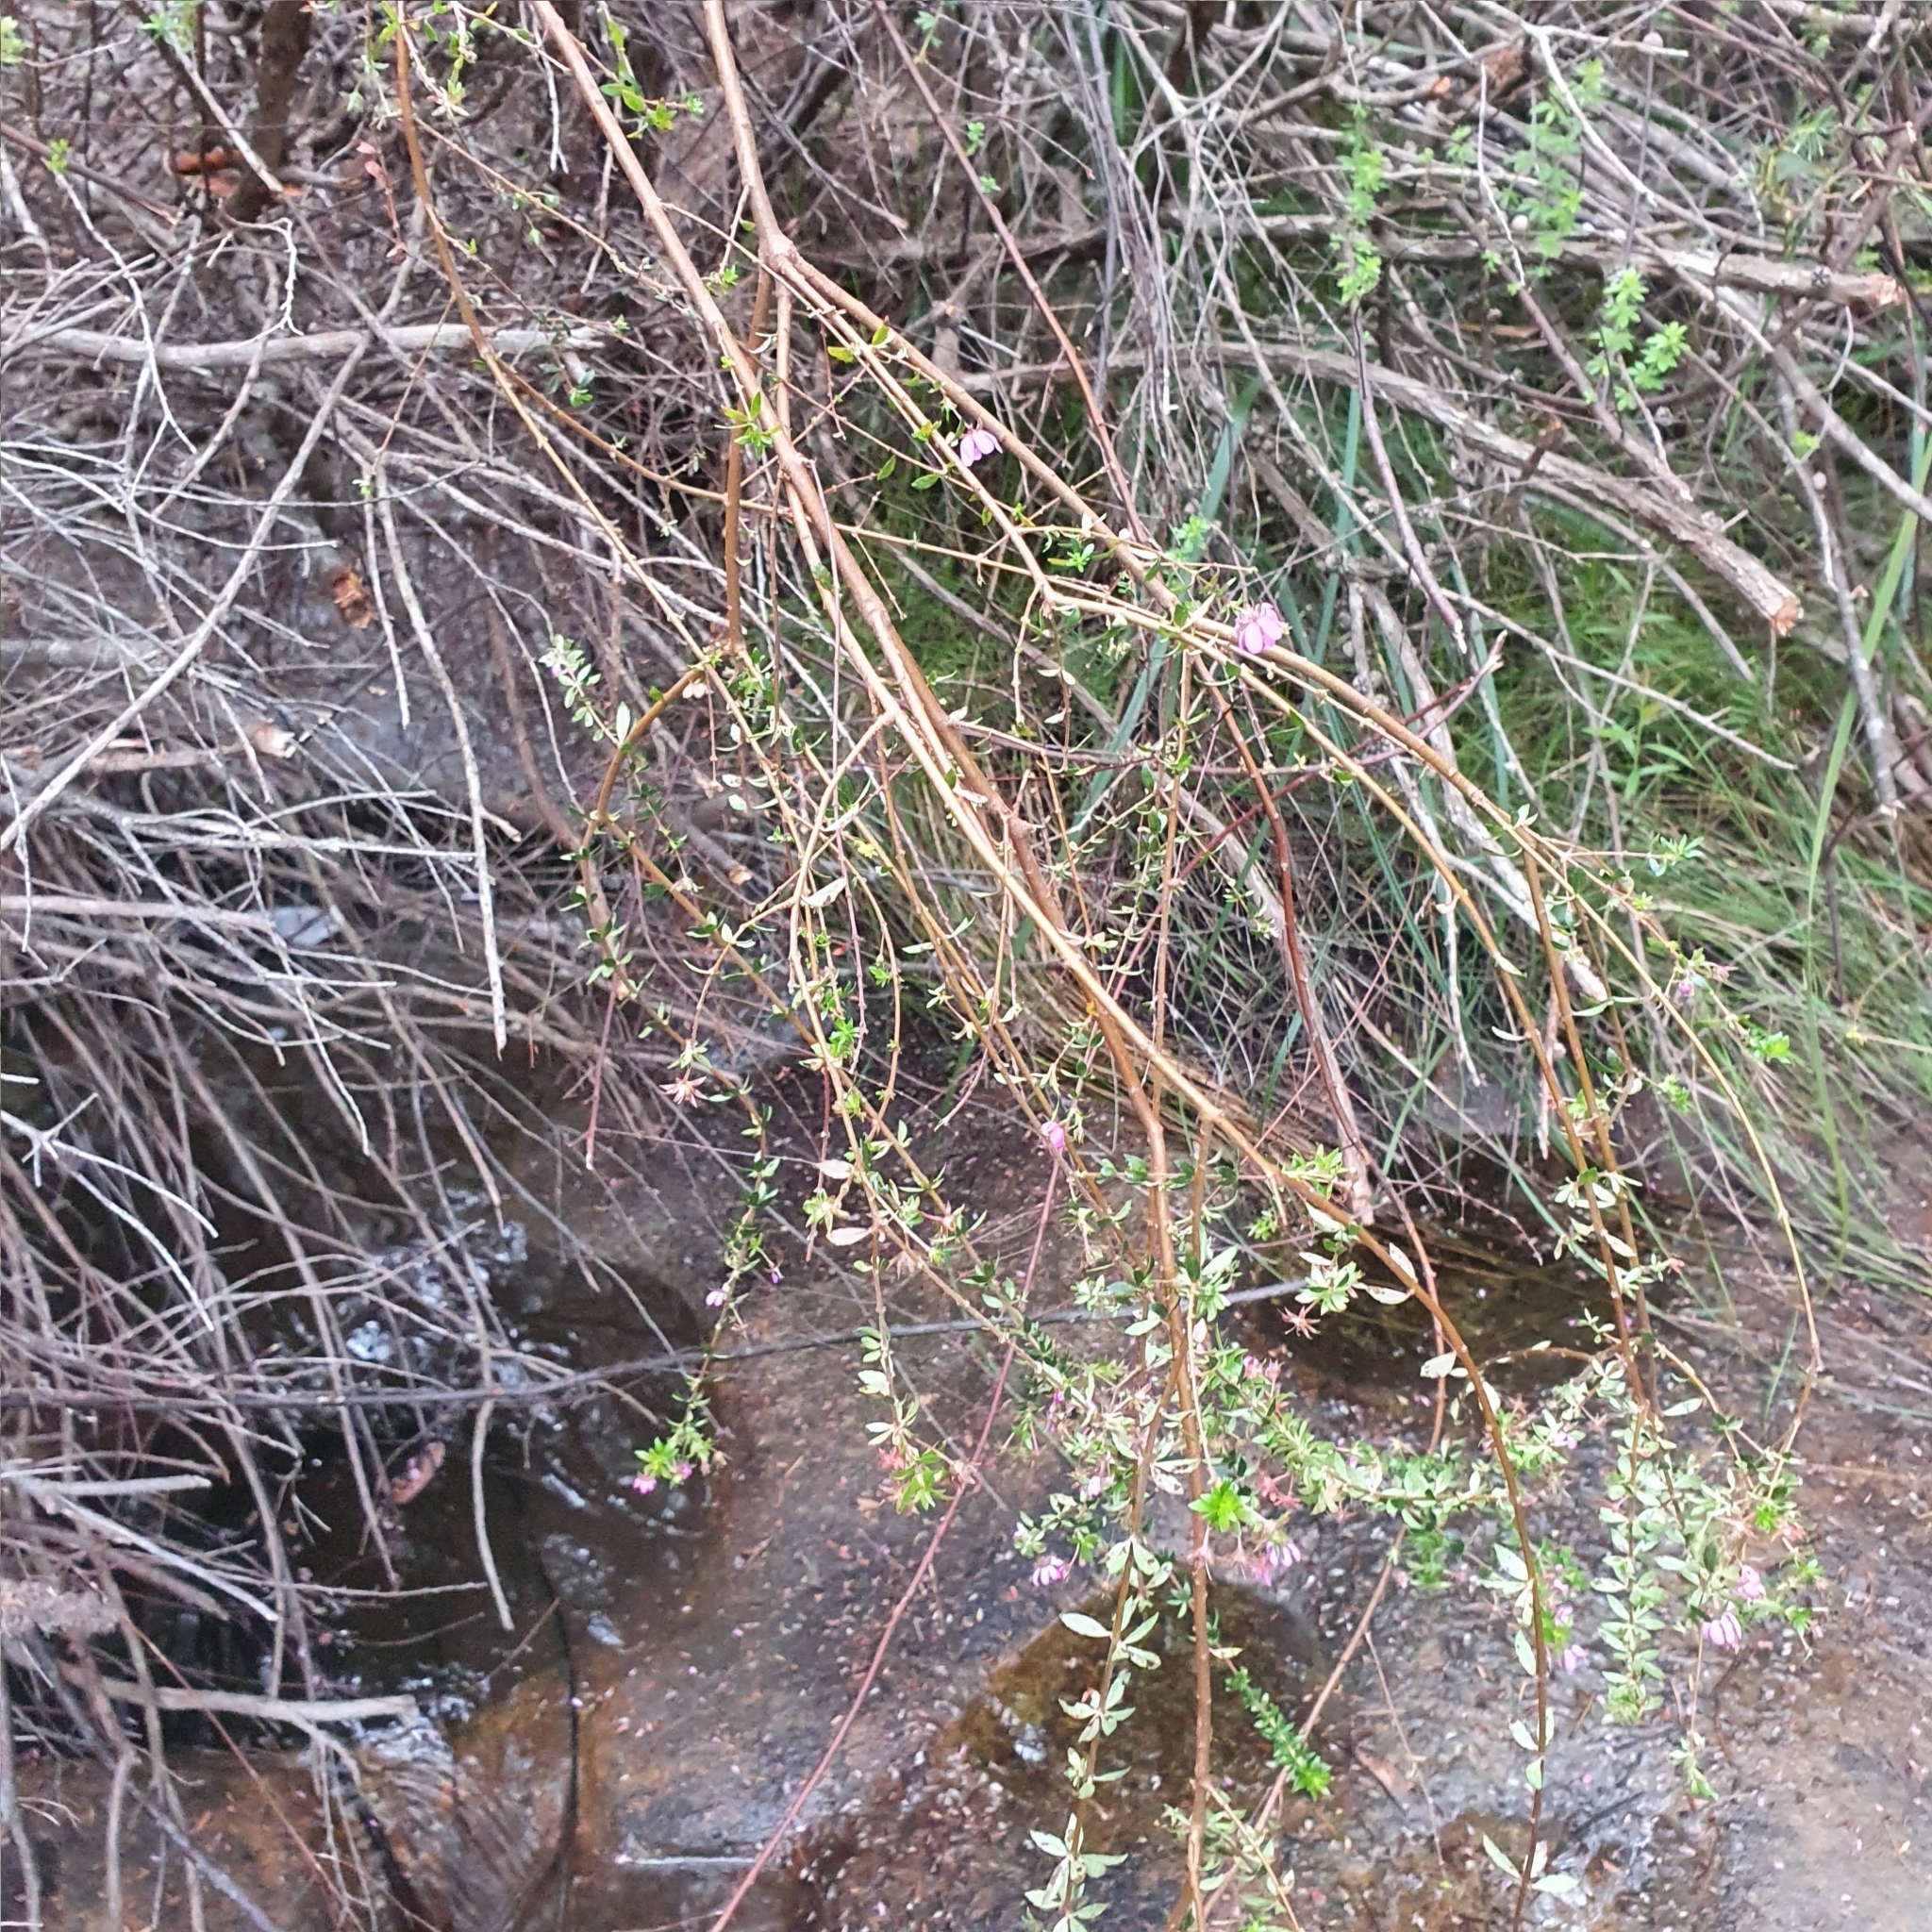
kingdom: Plantae
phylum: Tracheophyta
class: Magnoliopsida
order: Oxalidales
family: Cunoniaceae
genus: Bauera
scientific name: Bauera rubioides
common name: River-rose
